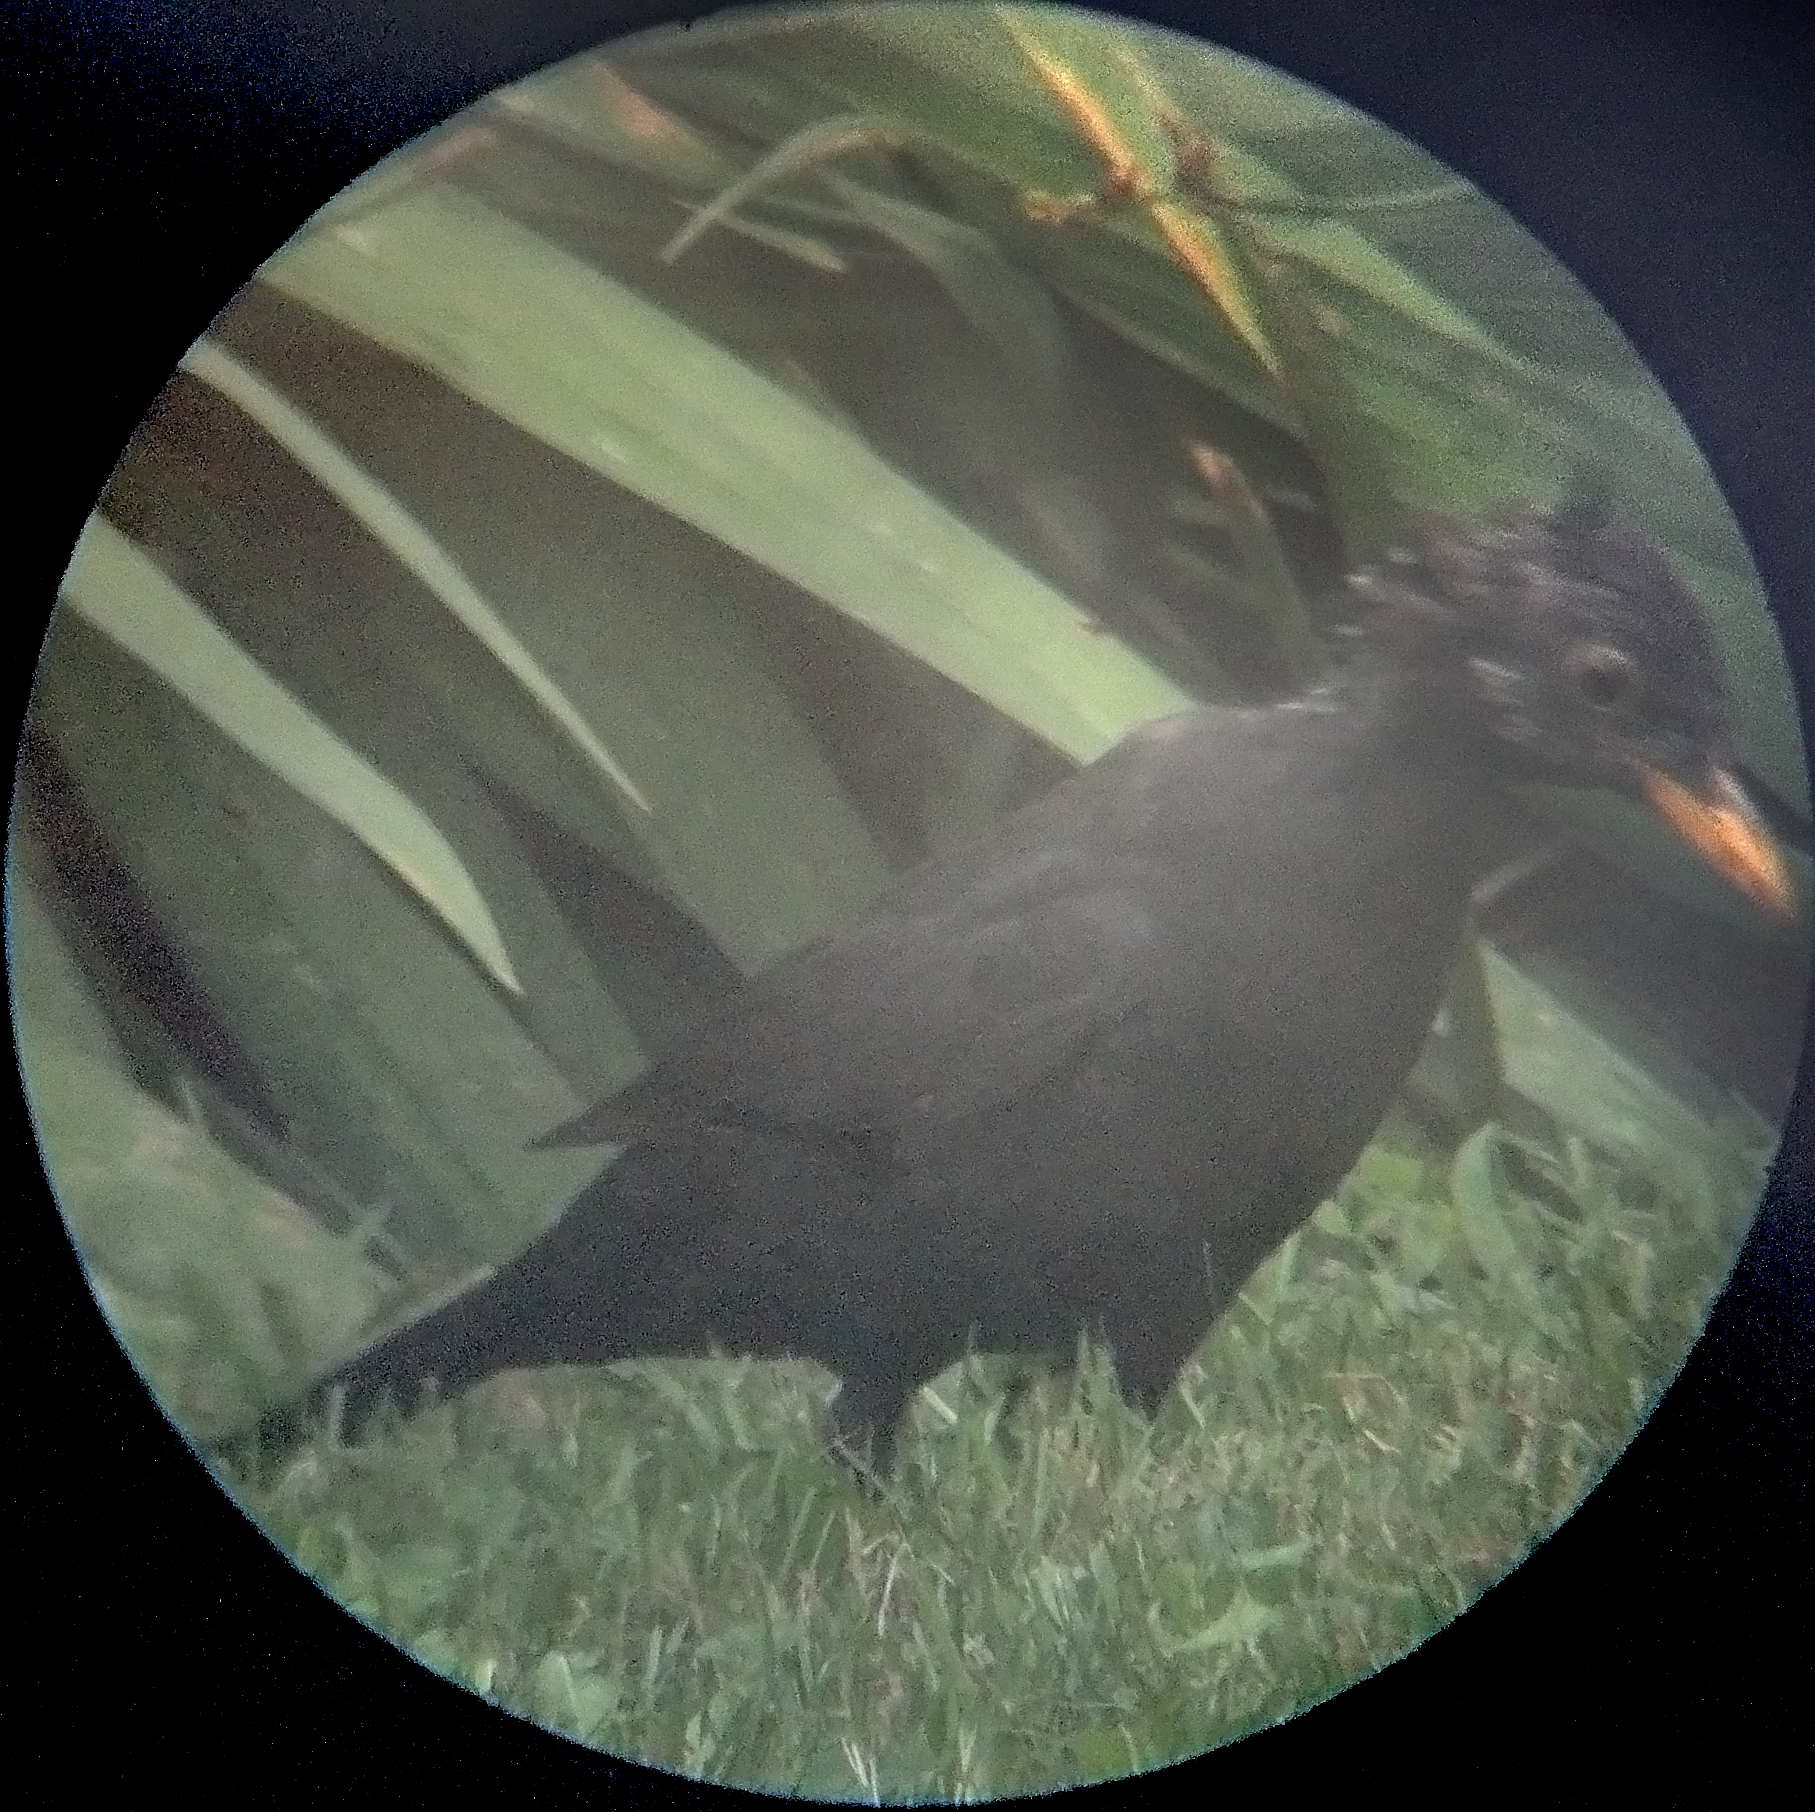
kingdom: Animalia
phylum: Chordata
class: Aves
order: Passeriformes
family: Turdidae
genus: Turdus
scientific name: Turdus merula
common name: Common blackbird
